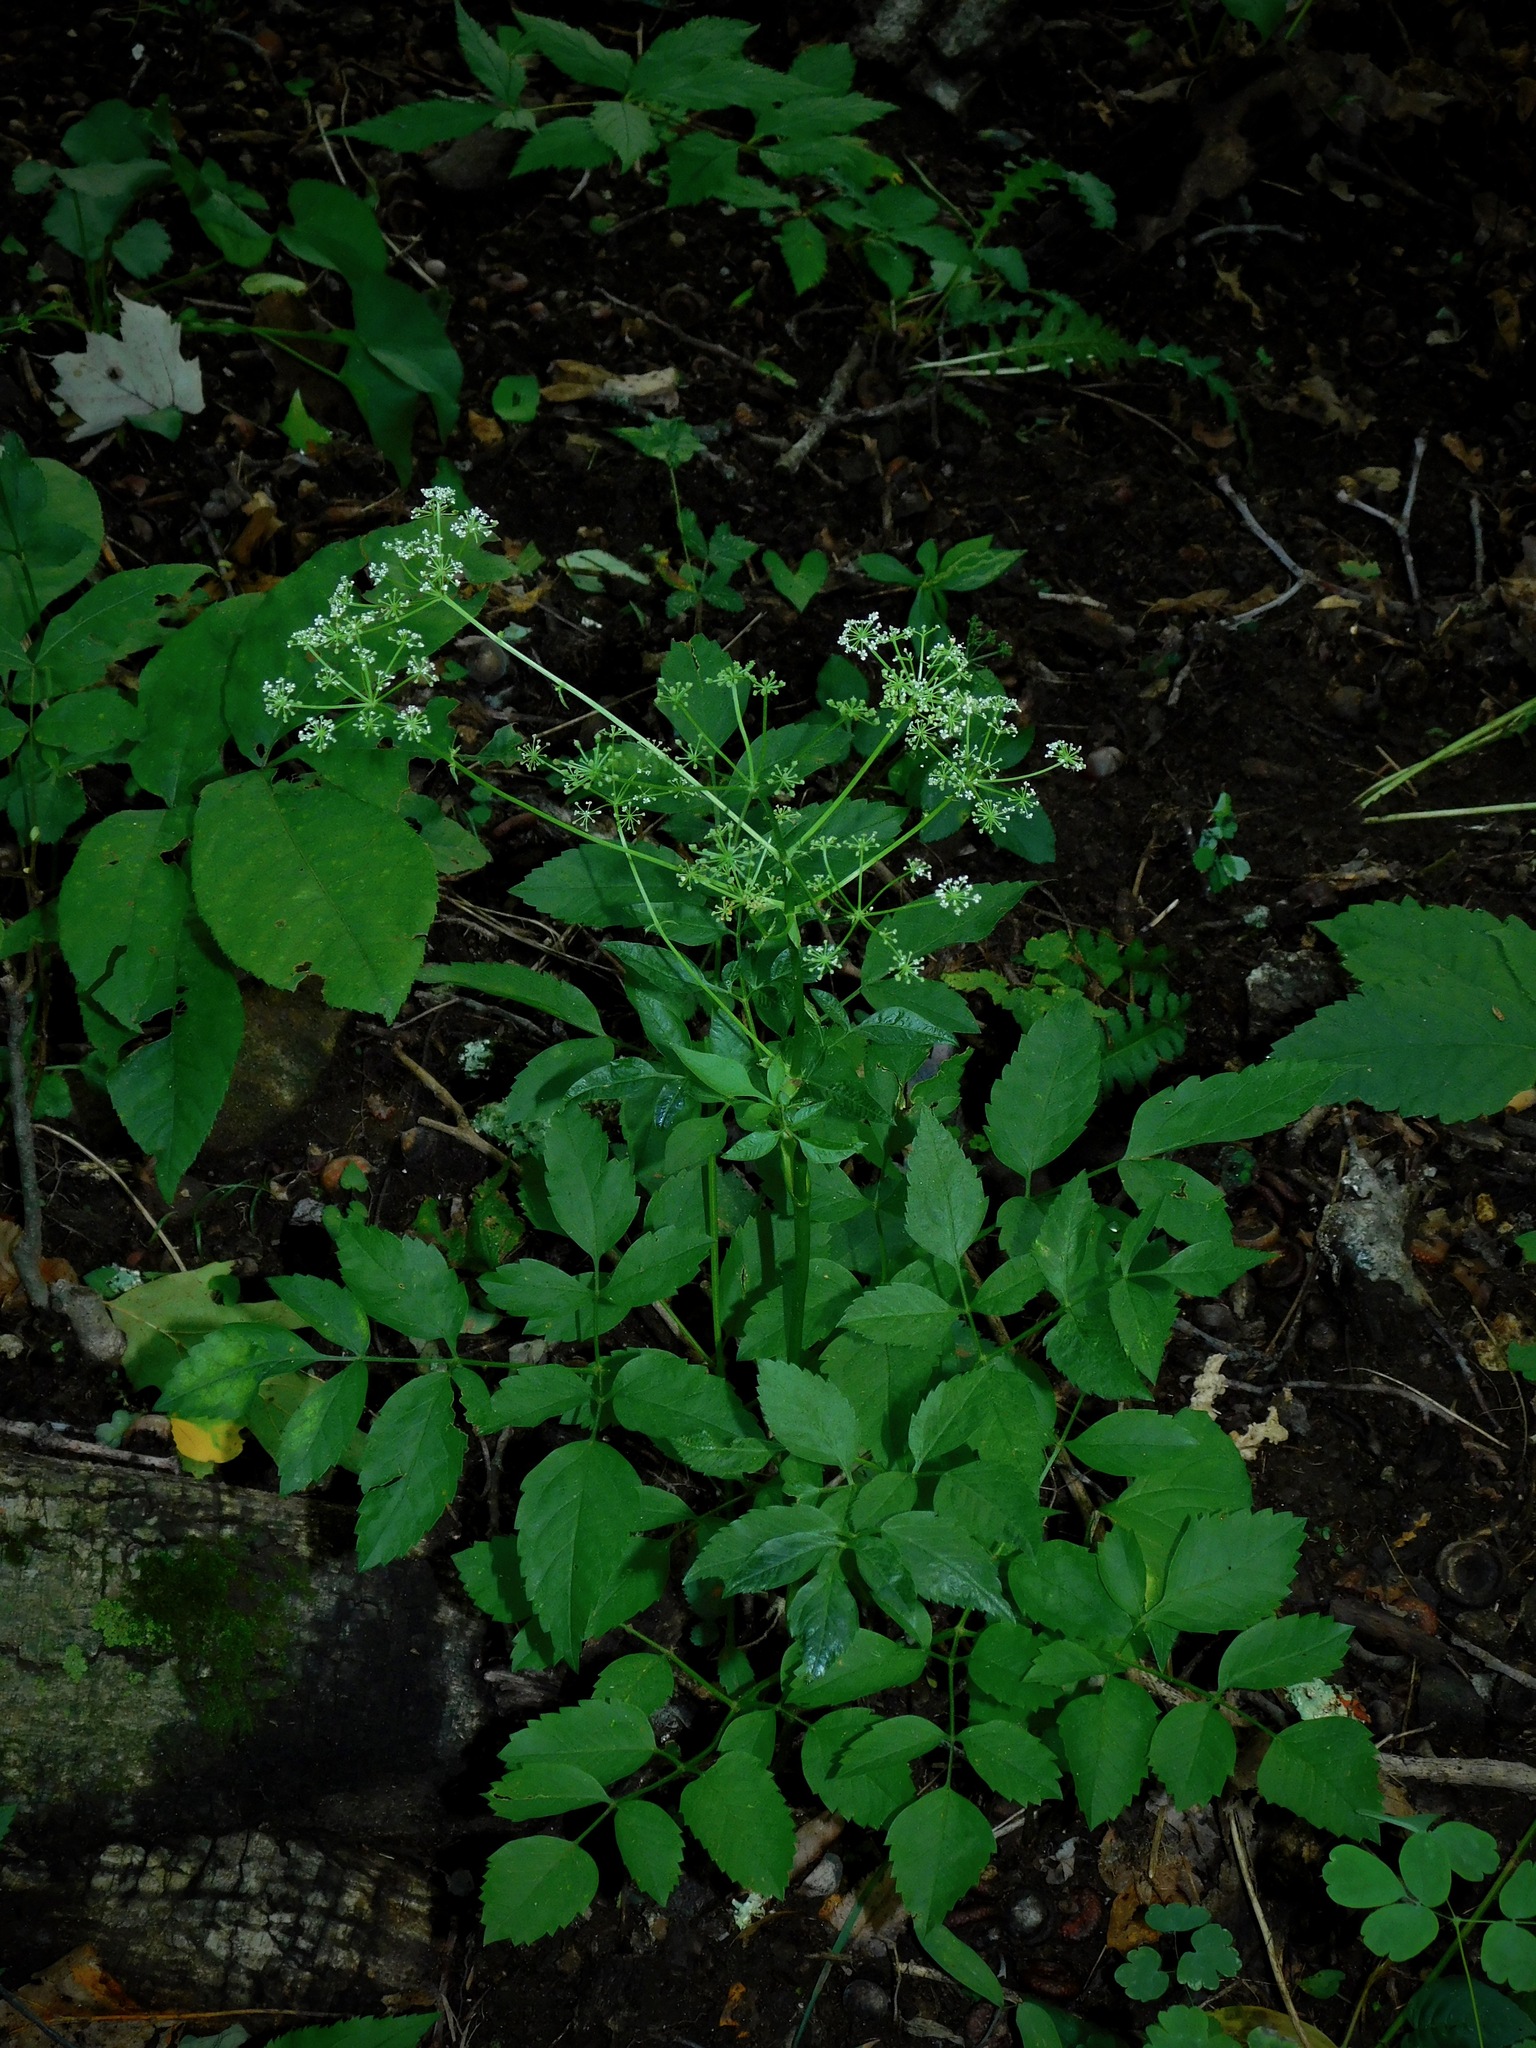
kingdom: Plantae
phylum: Tracheophyta
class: Magnoliopsida
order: Apiales
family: Apiaceae
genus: Ligusticum
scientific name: Ligusticum canadense
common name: American lovage
